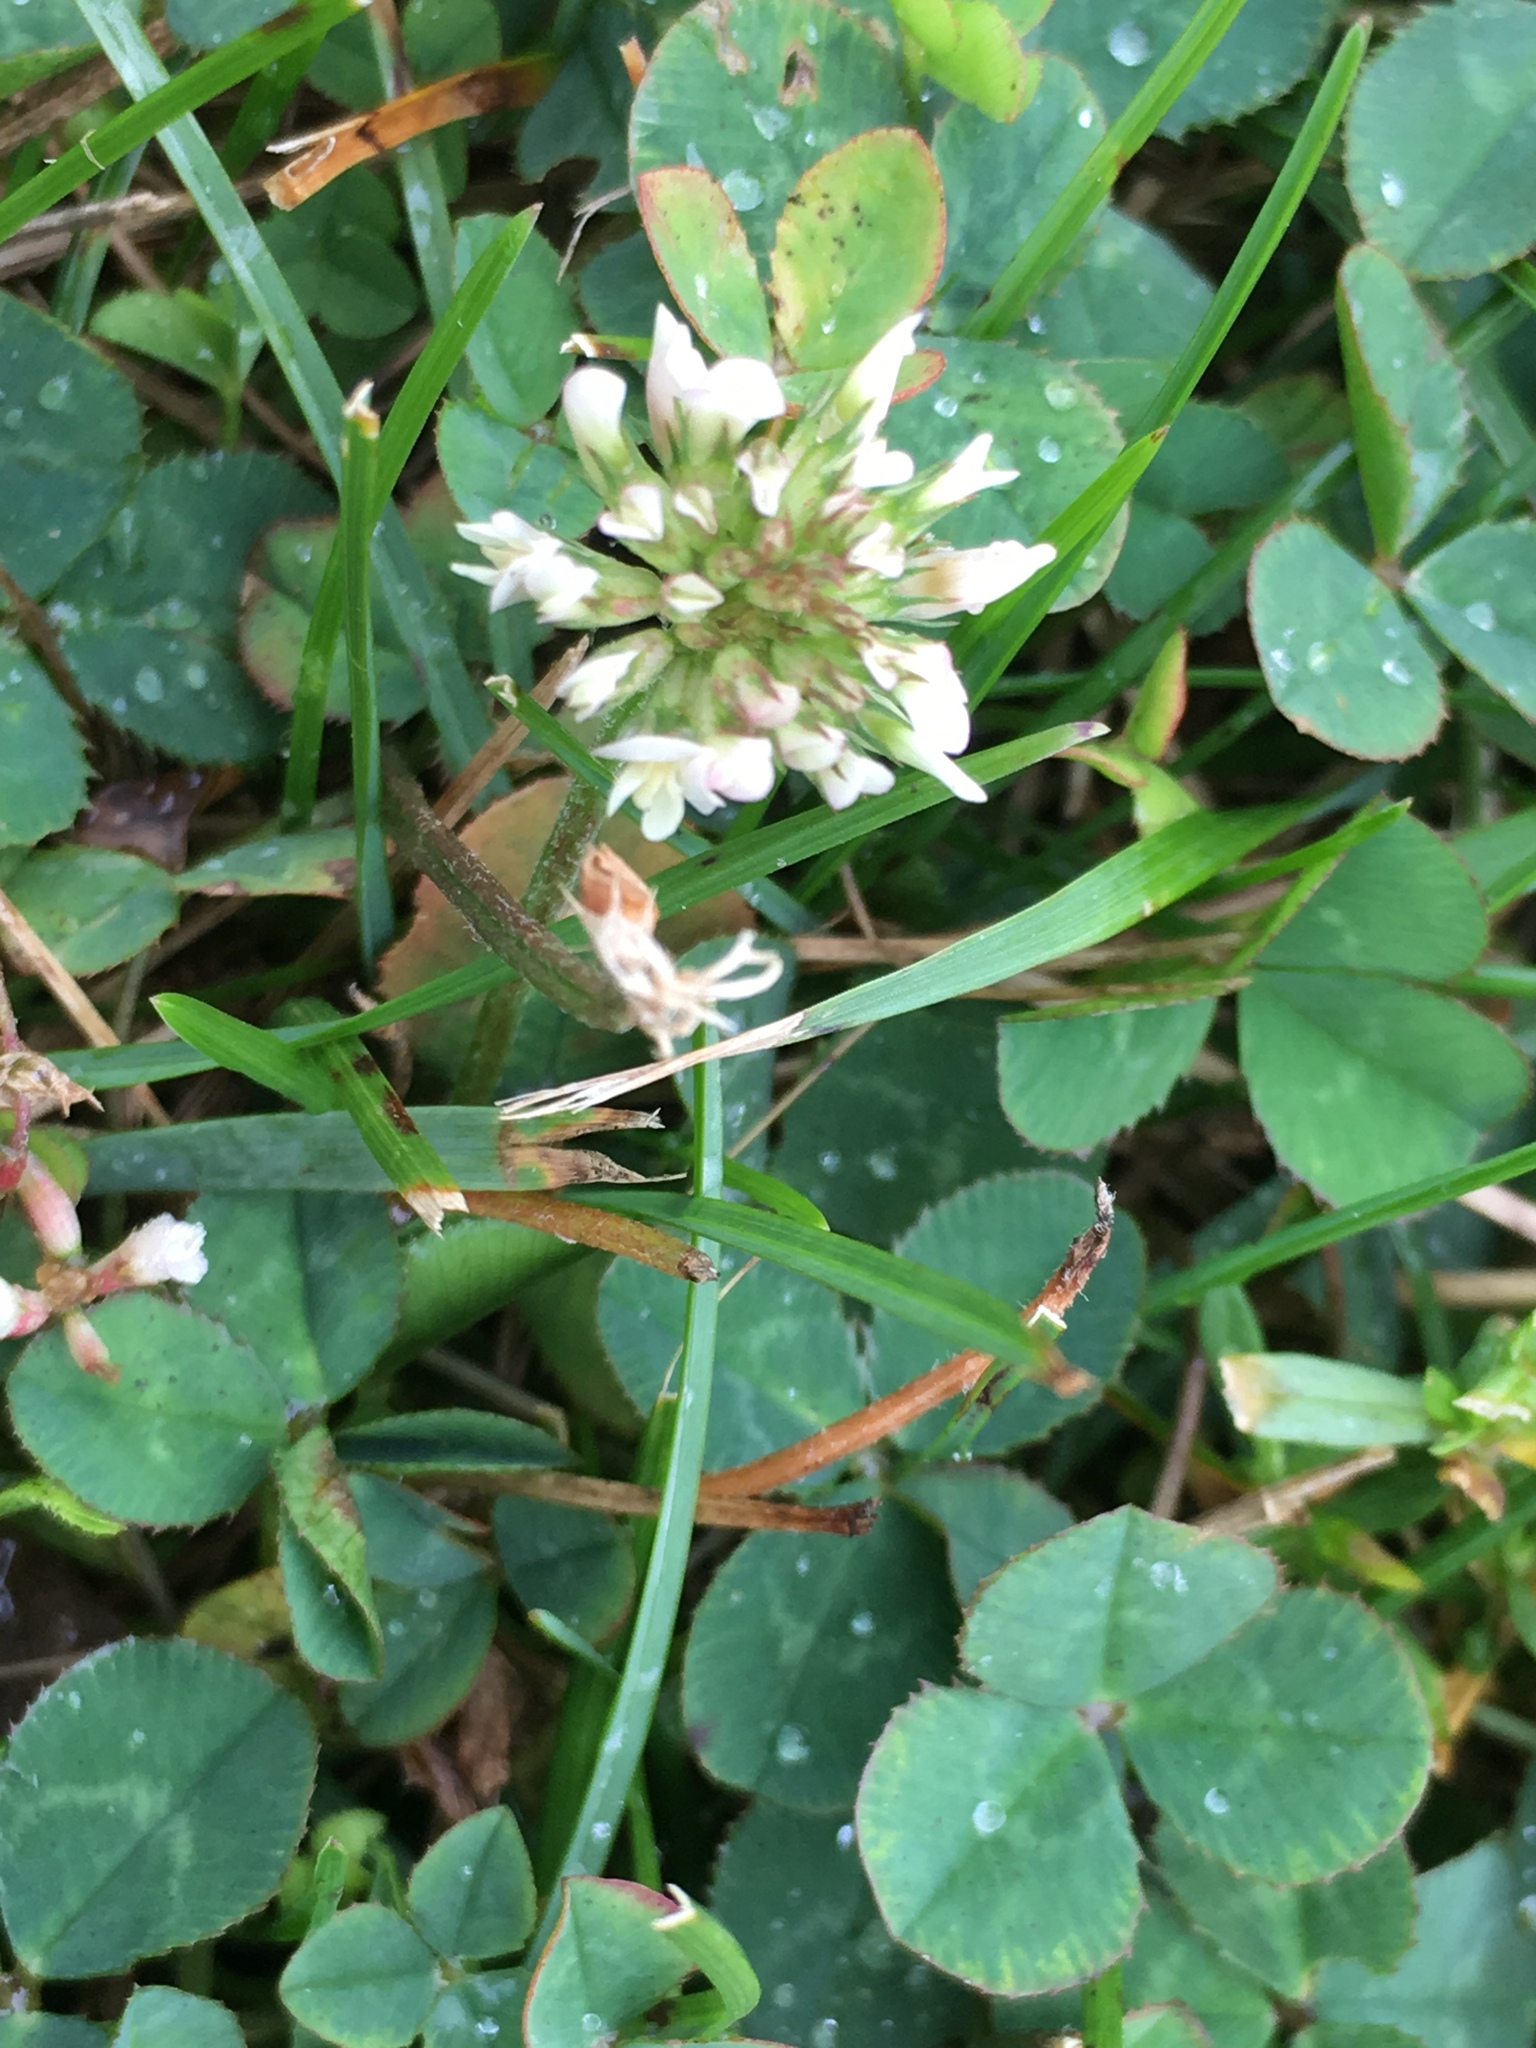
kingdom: Plantae
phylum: Tracheophyta
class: Magnoliopsida
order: Fabales
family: Fabaceae
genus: Trifolium
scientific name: Trifolium repens
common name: White clover
